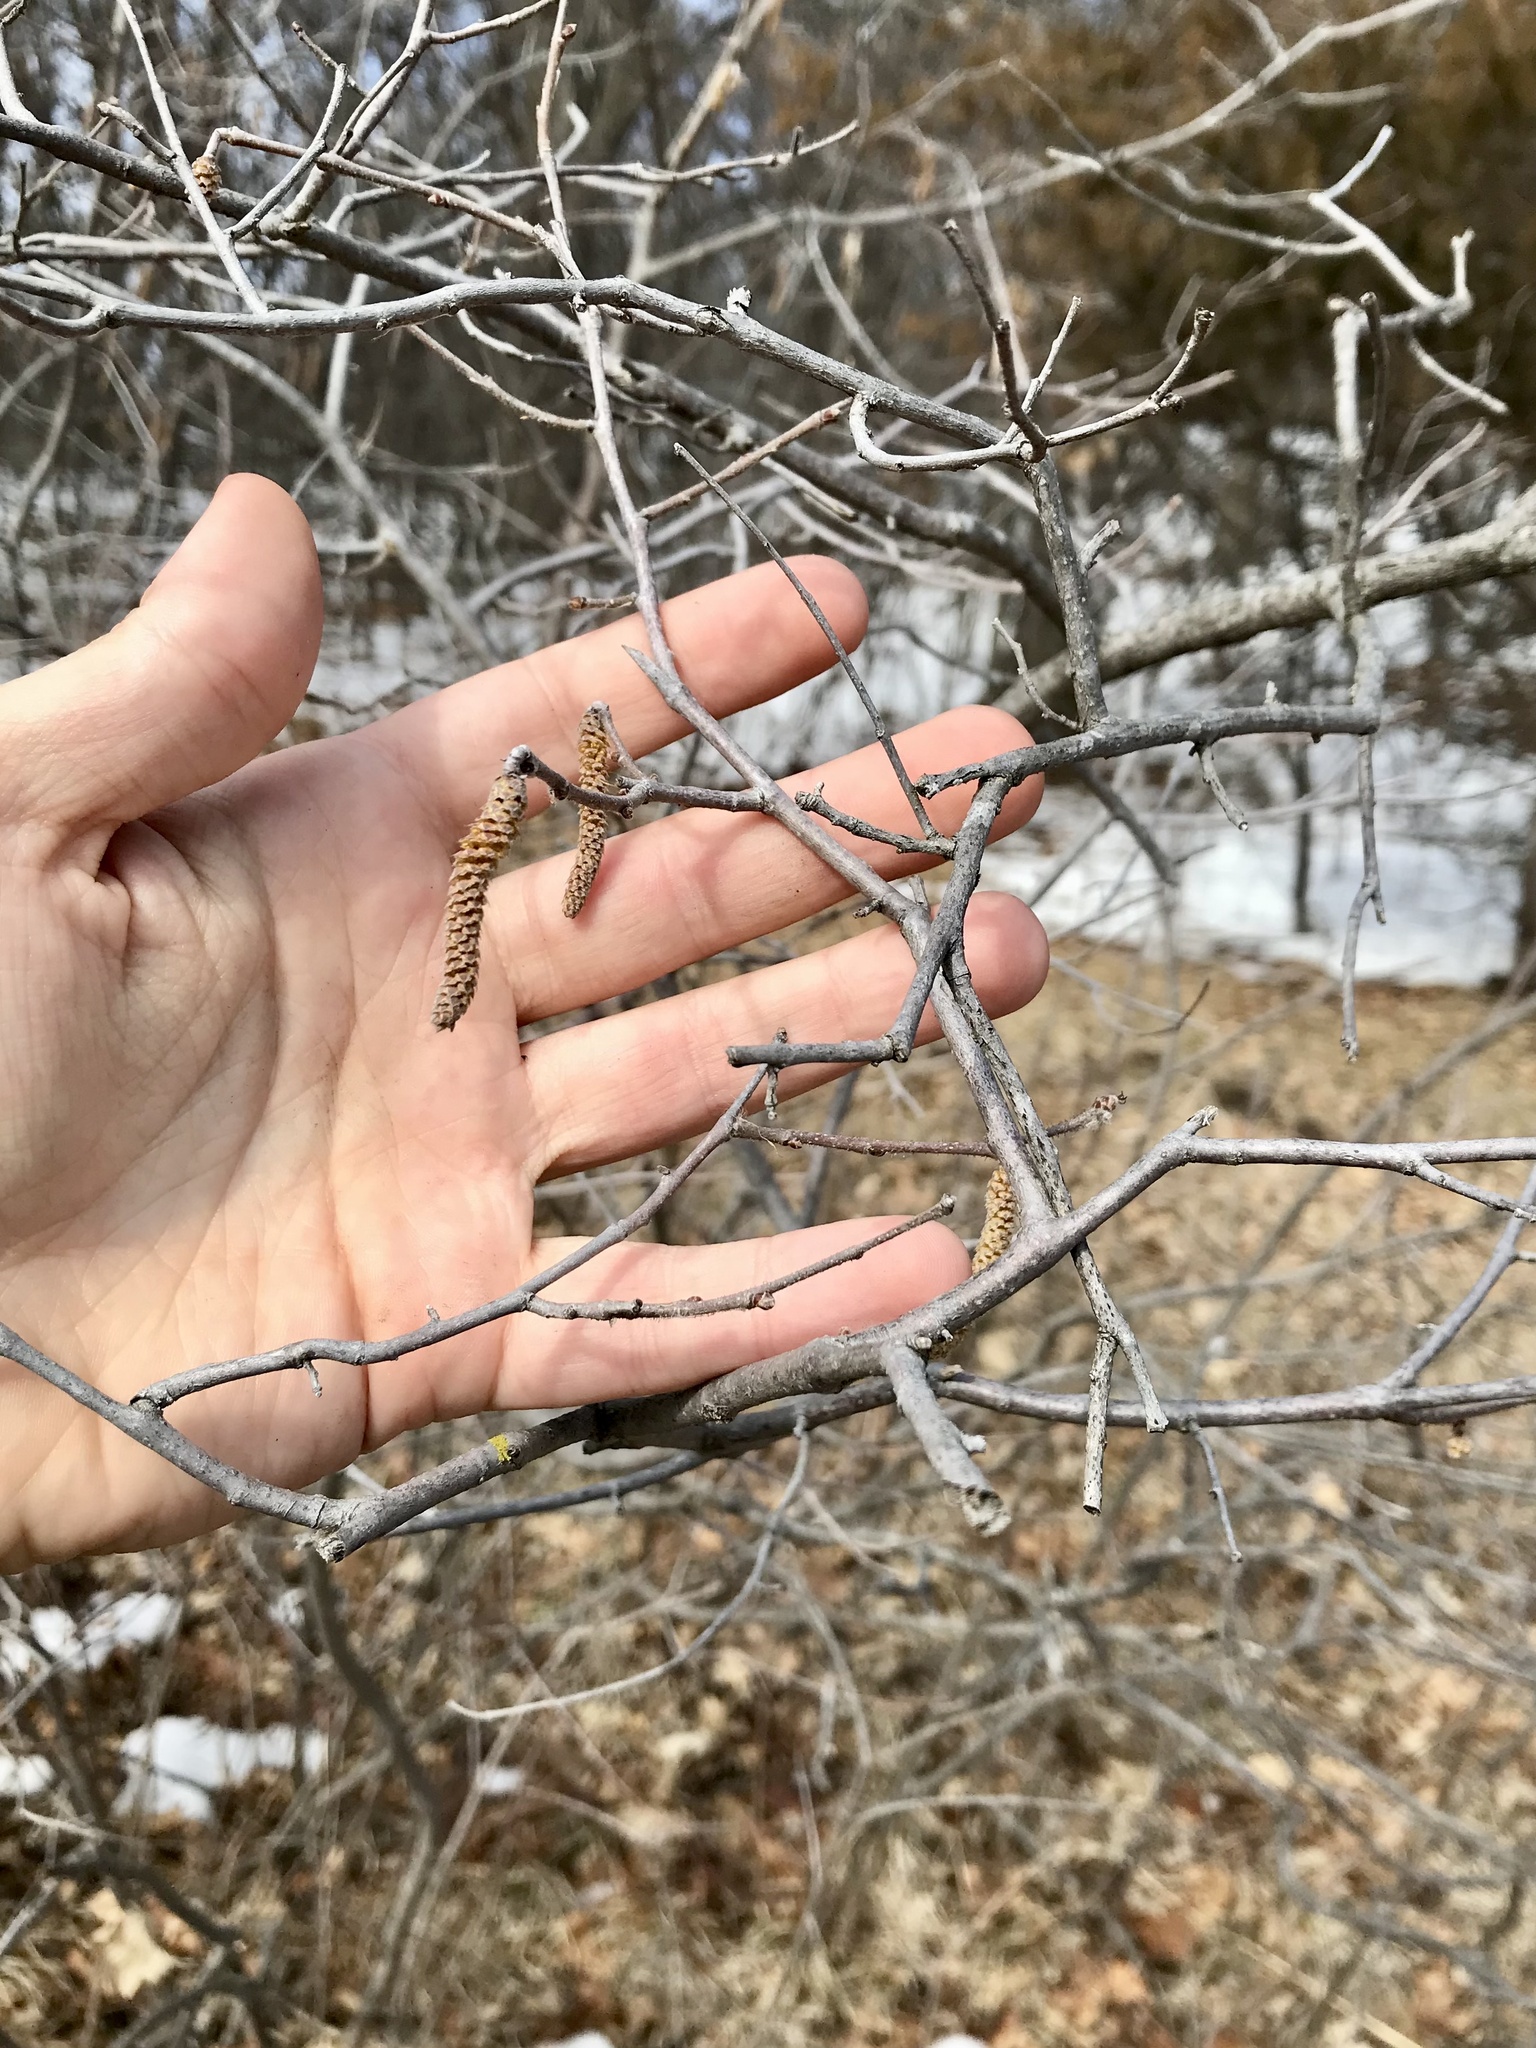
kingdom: Plantae
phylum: Tracheophyta
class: Magnoliopsida
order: Fagales
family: Betulaceae
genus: Corylus
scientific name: Corylus americana
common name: American hazel
